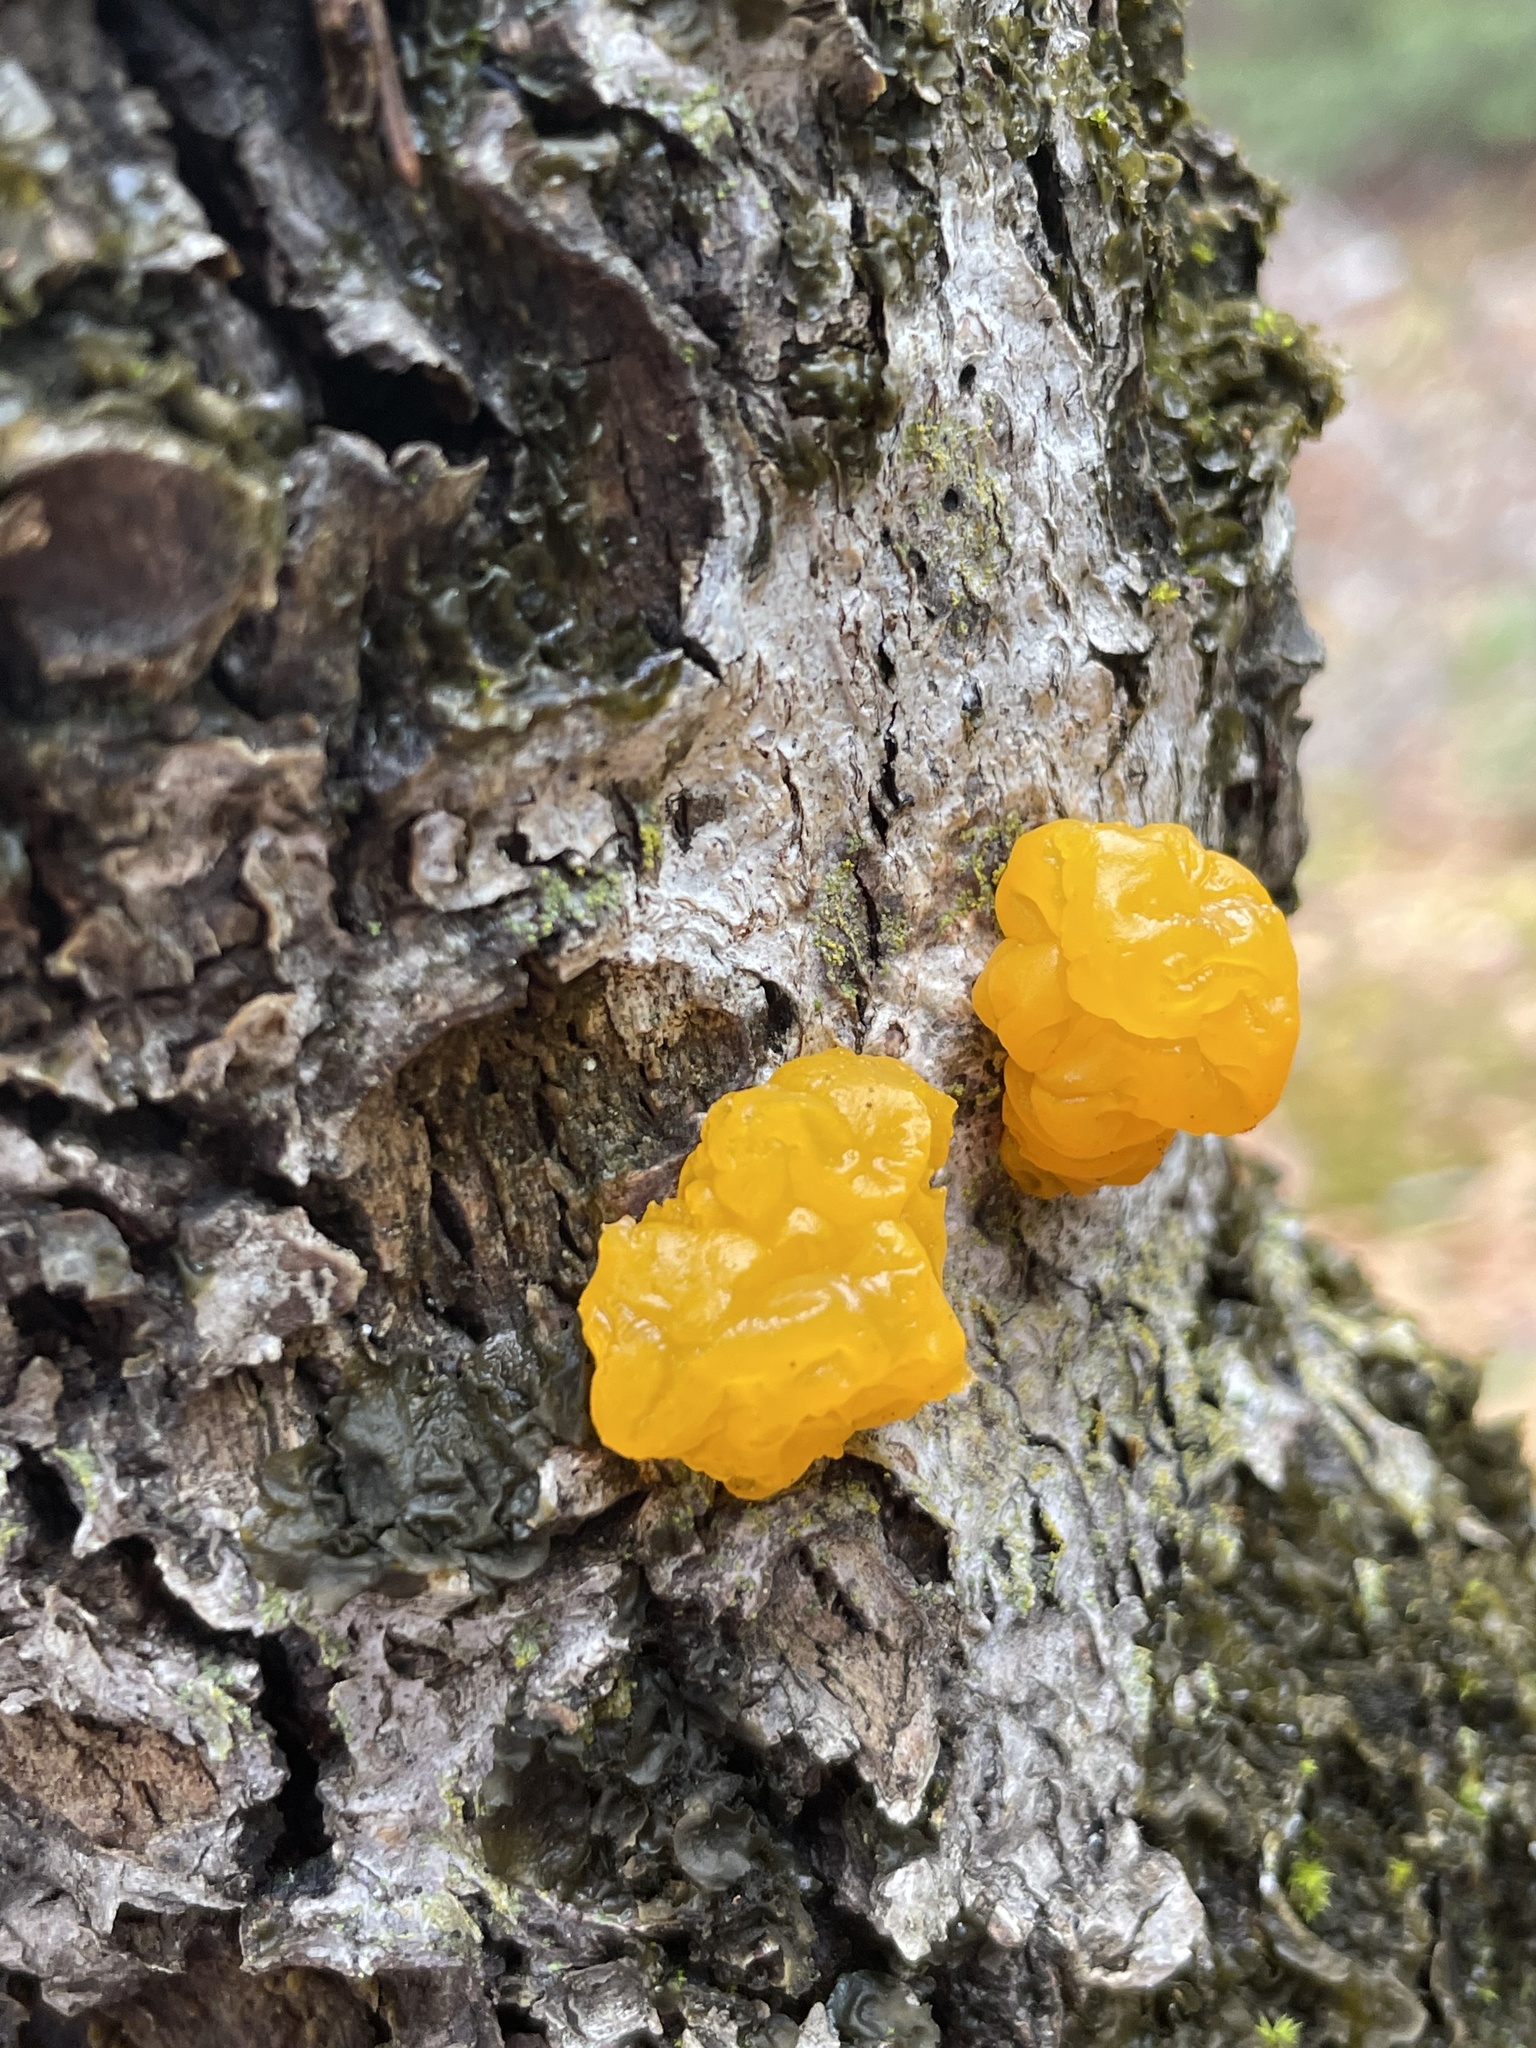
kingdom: Fungi
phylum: Basidiomycota
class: Dacrymycetes
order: Dacrymycetales
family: Dacrymycetaceae
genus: Dacrymyces
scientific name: Dacrymyces chrysospermus
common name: Orange jelly spot
